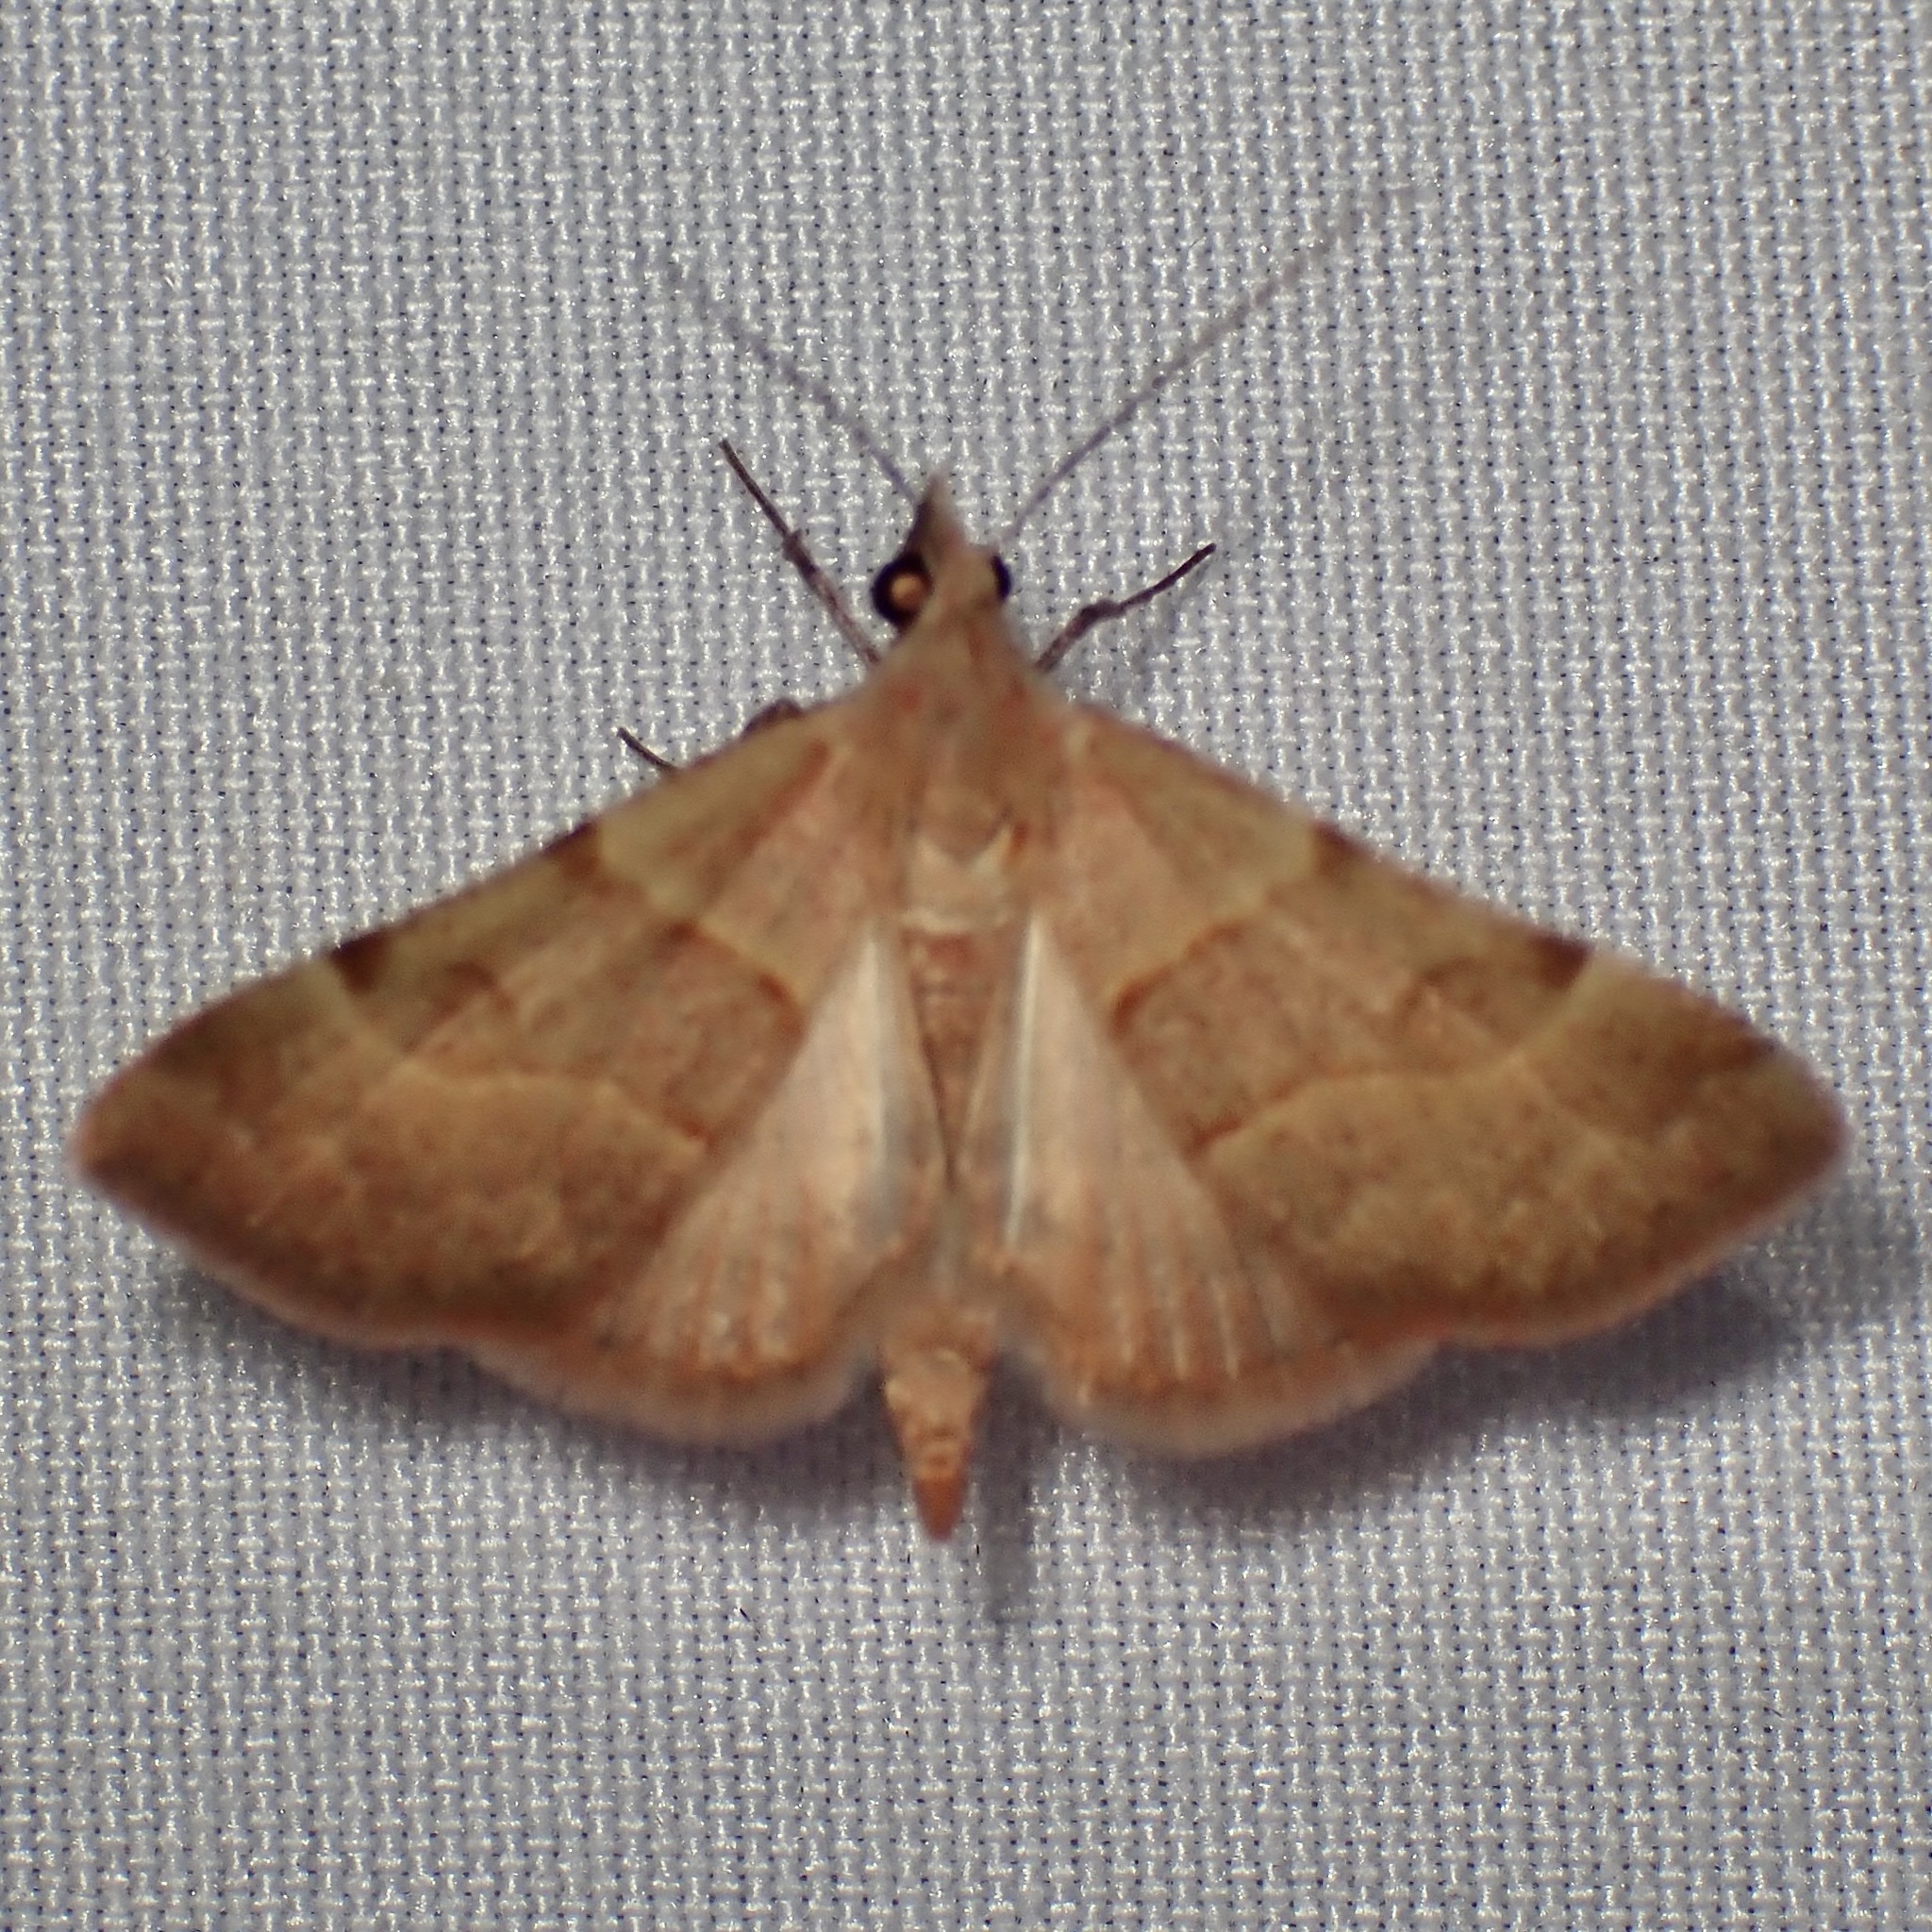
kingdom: Animalia
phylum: Arthropoda
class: Insecta
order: Lepidoptera
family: Erebidae
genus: Hemeroplanis
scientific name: Hemeroplanis rectalis
